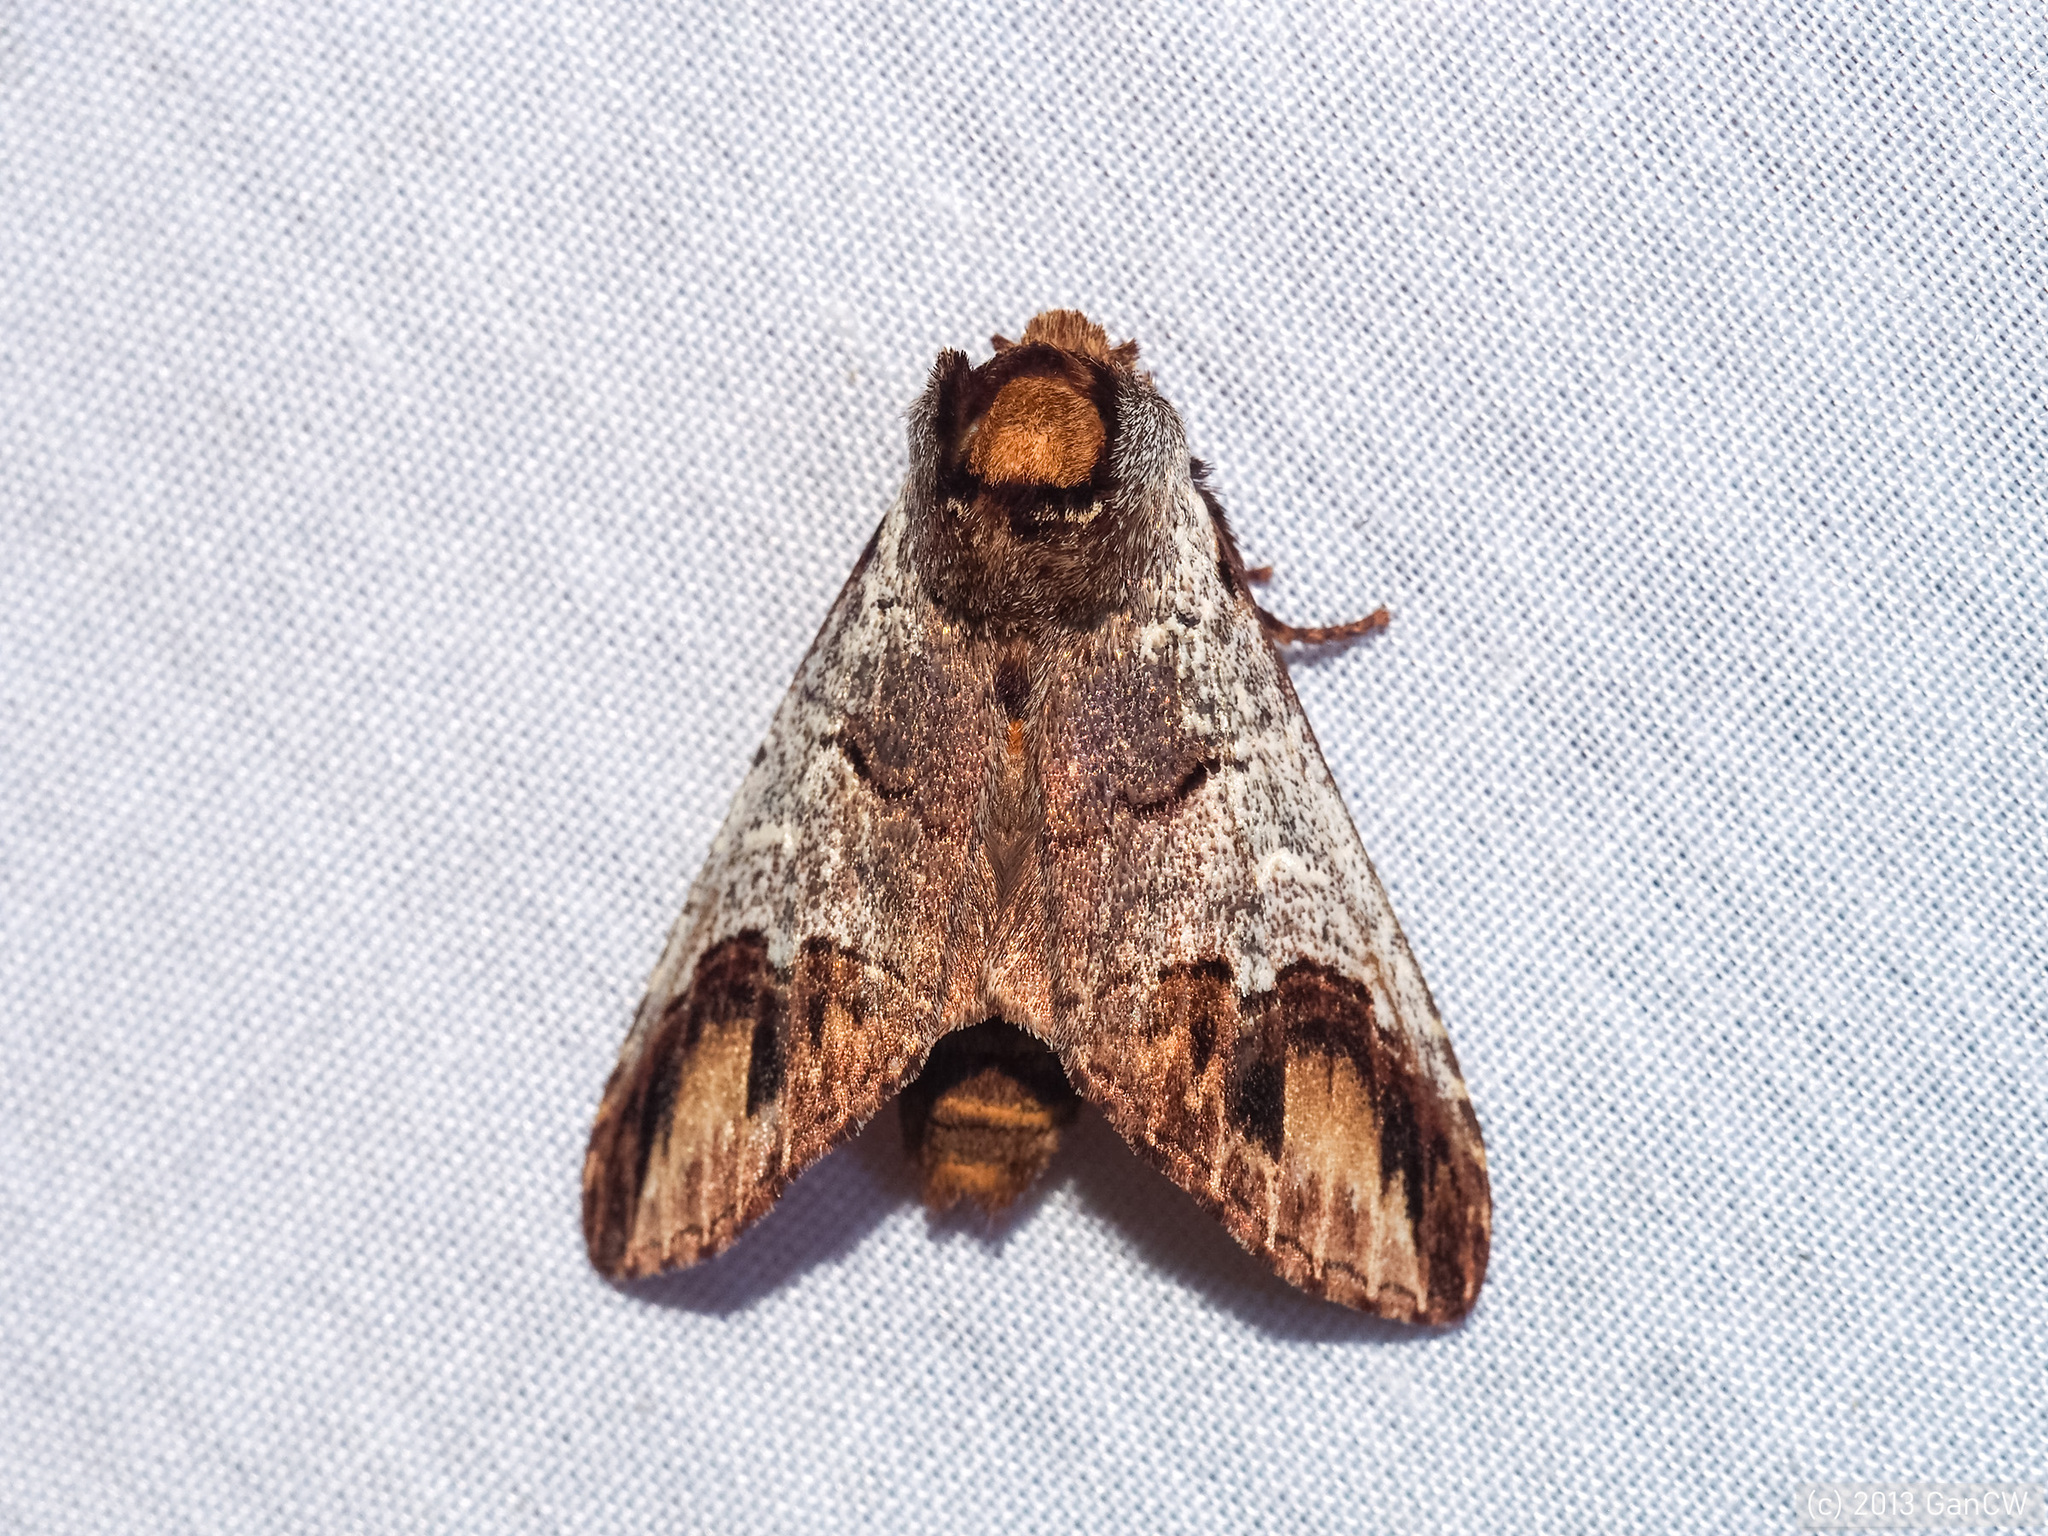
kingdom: Animalia
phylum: Arthropoda
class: Insecta
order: Lepidoptera
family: Notodontidae
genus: Snellenita
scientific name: Snellenita divaricata
